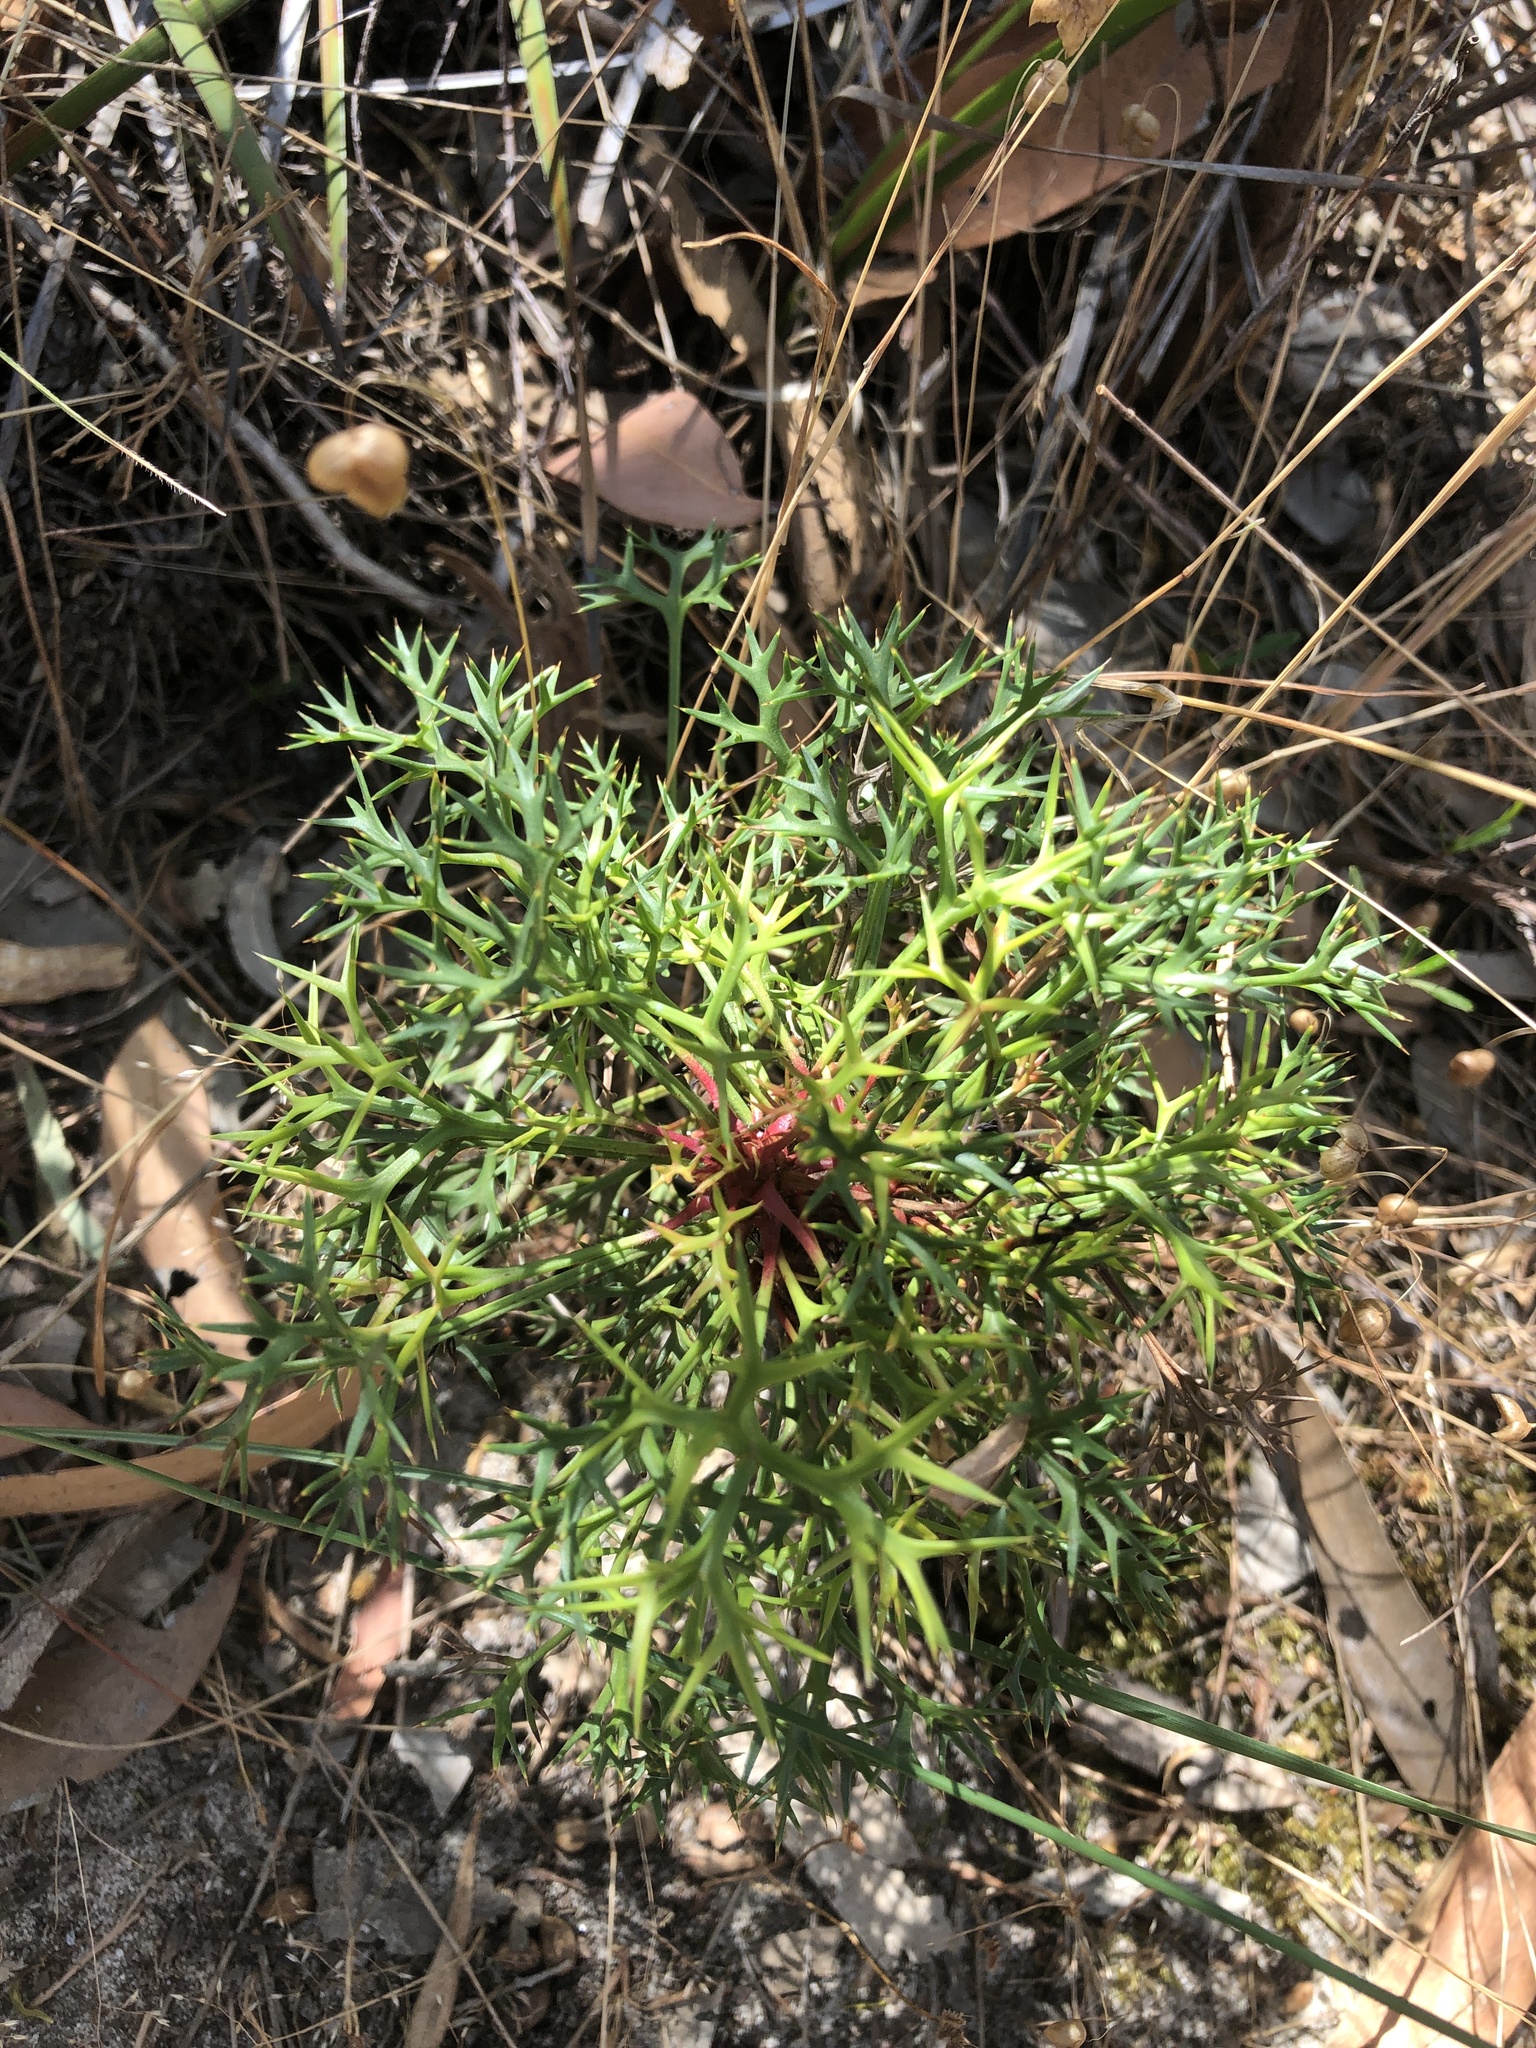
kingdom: Plantae
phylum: Tracheophyta
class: Magnoliopsida
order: Proteales
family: Proteaceae
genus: Isopogon
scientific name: Isopogon ceratophyllus
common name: Horny cone-bush
